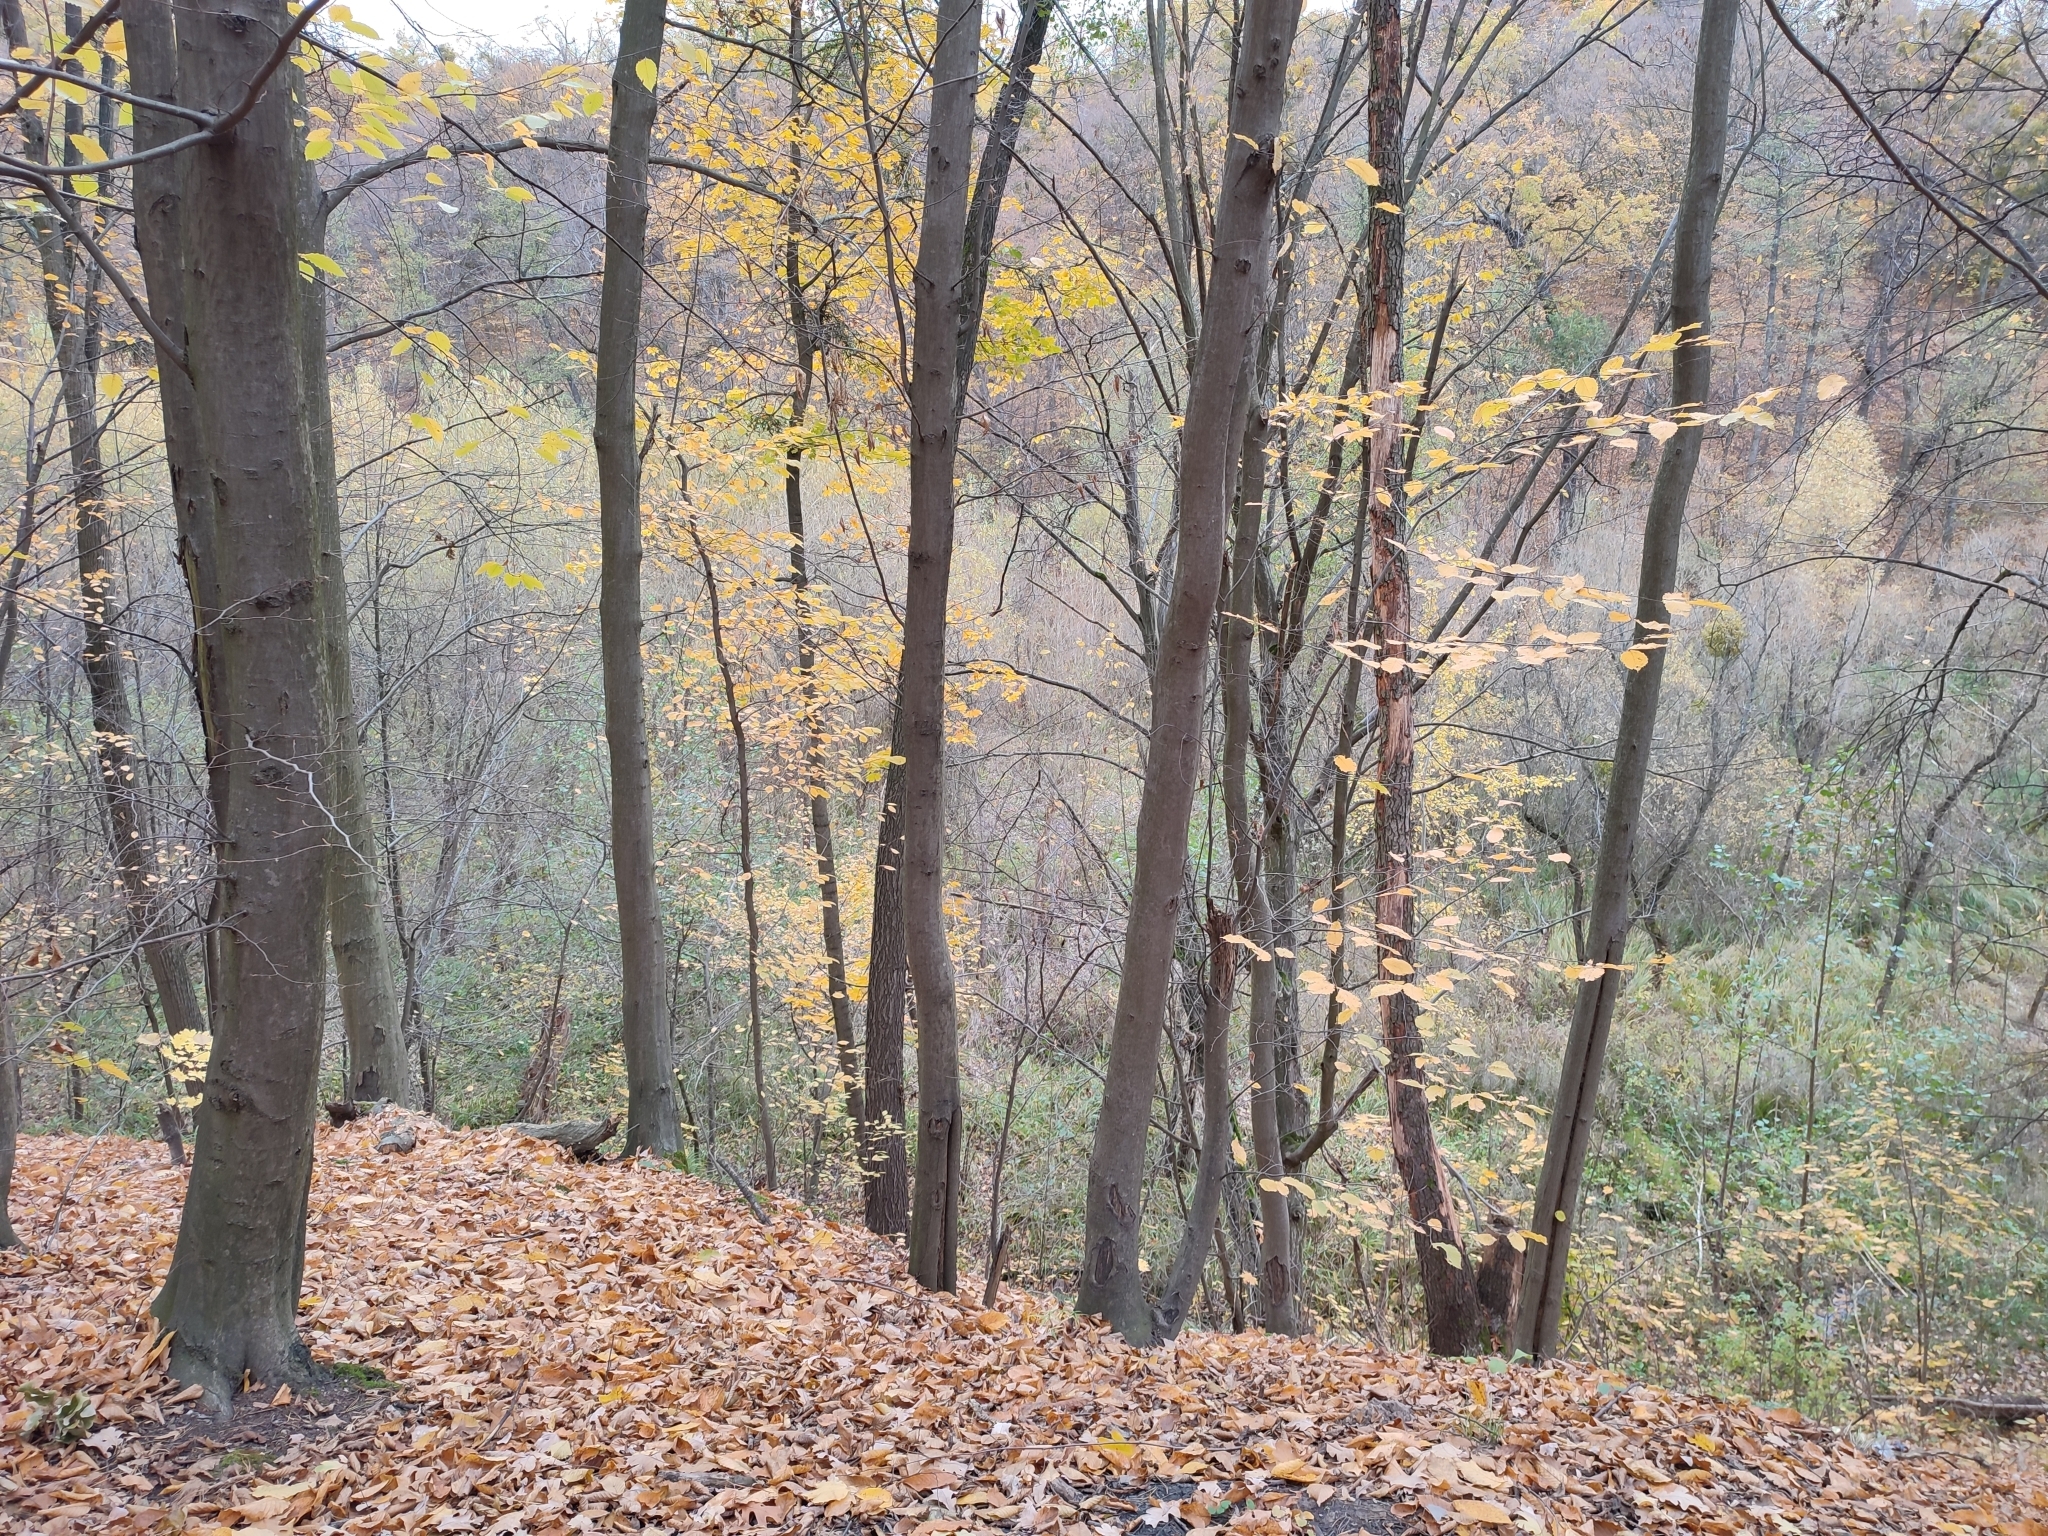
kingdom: Plantae
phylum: Tracheophyta
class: Magnoliopsida
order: Fagales
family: Betulaceae
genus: Carpinus
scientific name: Carpinus betulus
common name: Hornbeam
